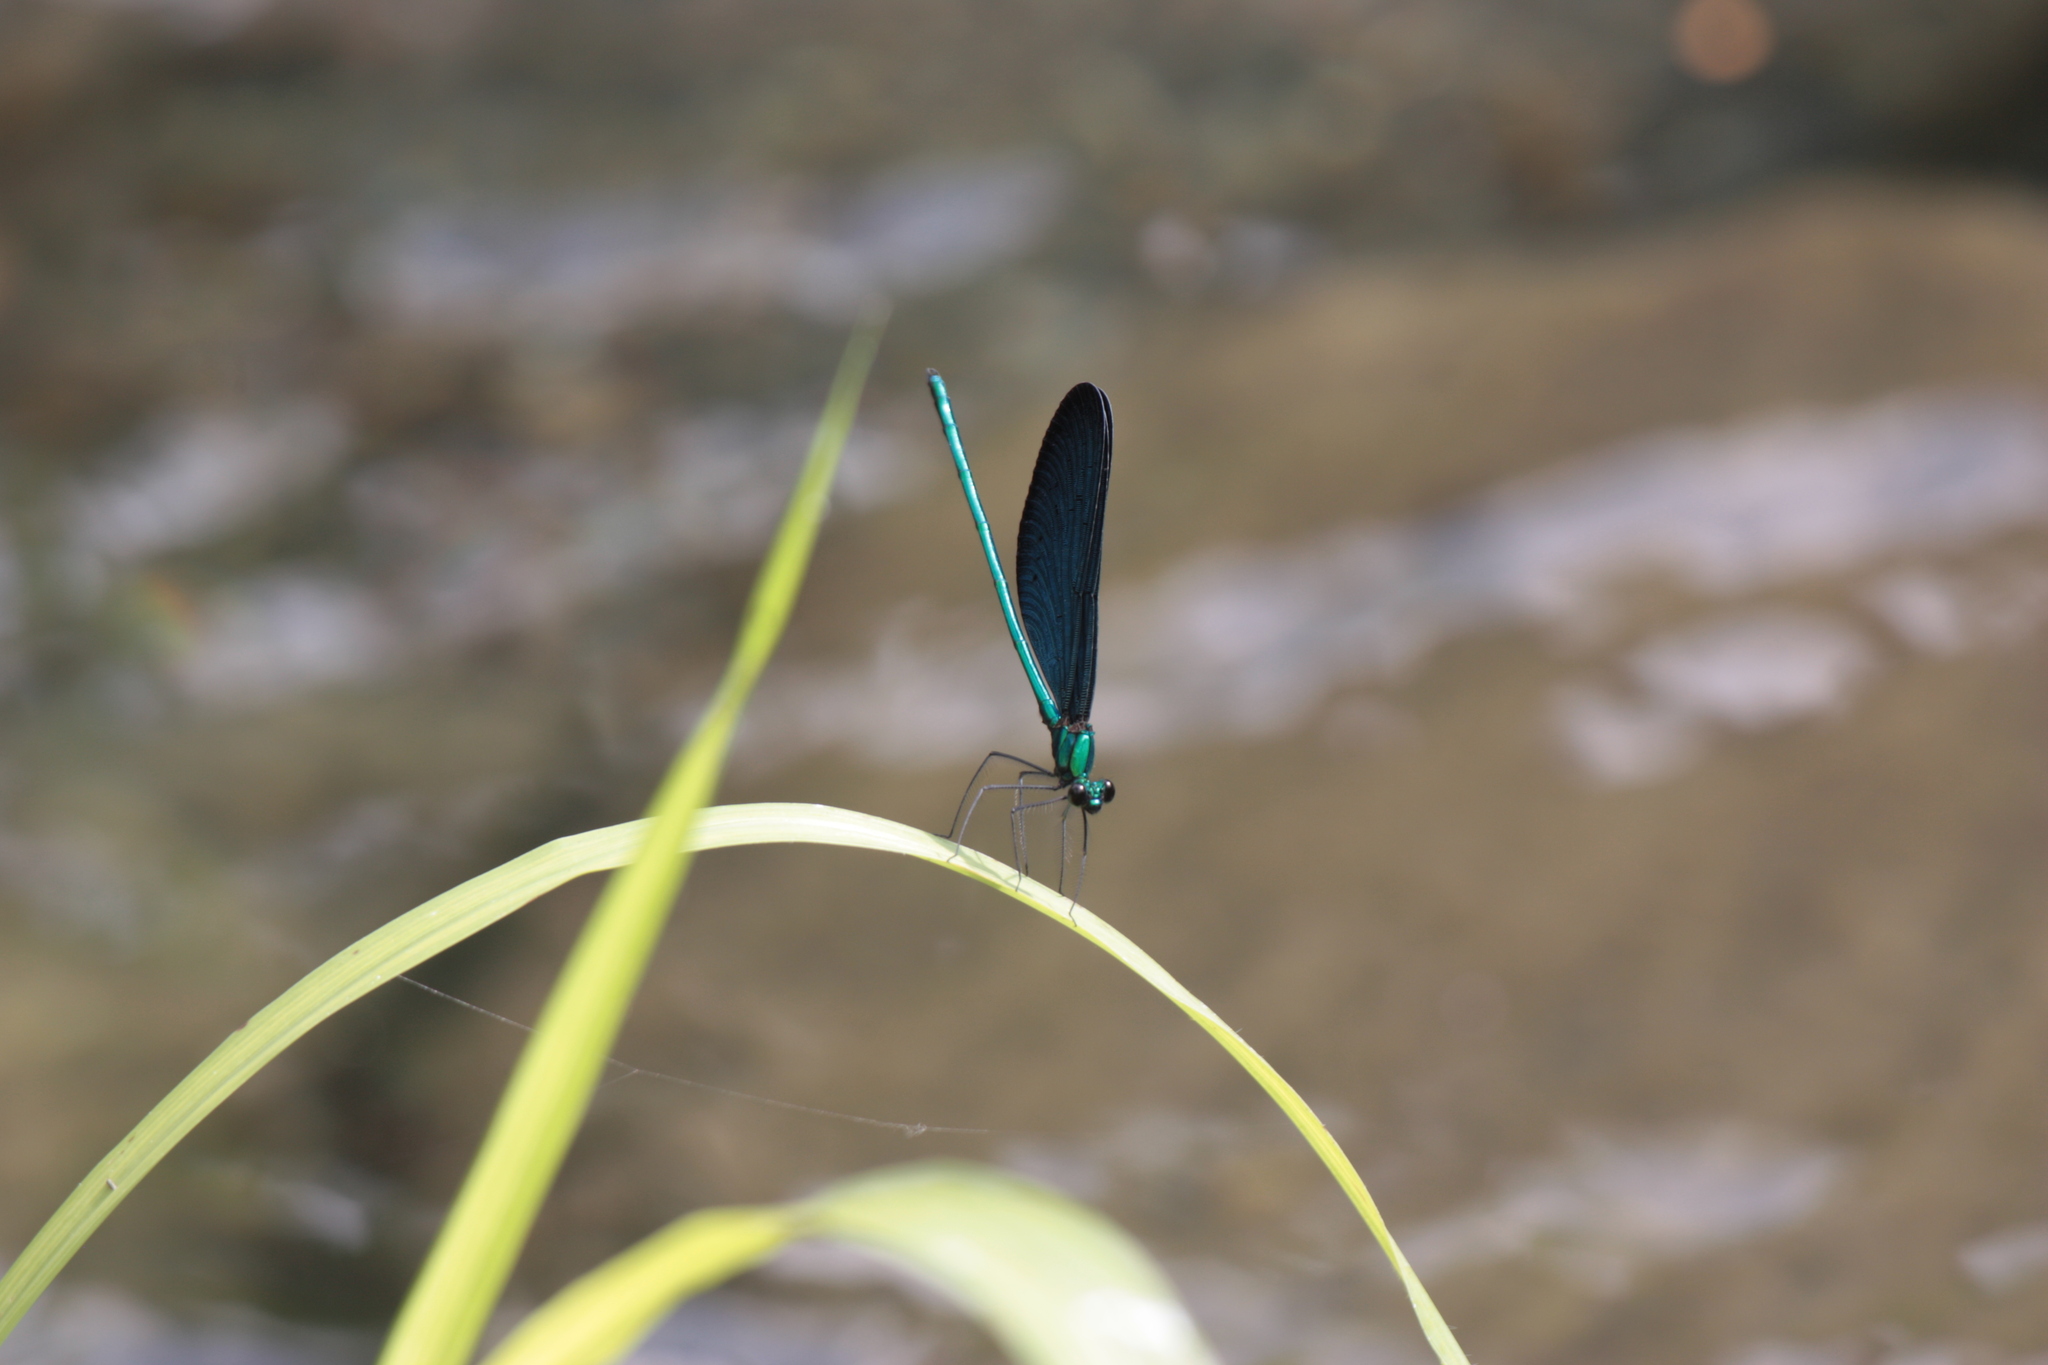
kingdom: Animalia
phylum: Arthropoda
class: Insecta
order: Odonata
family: Calopterygidae
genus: Matrona
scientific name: Matrona cyanoptera
